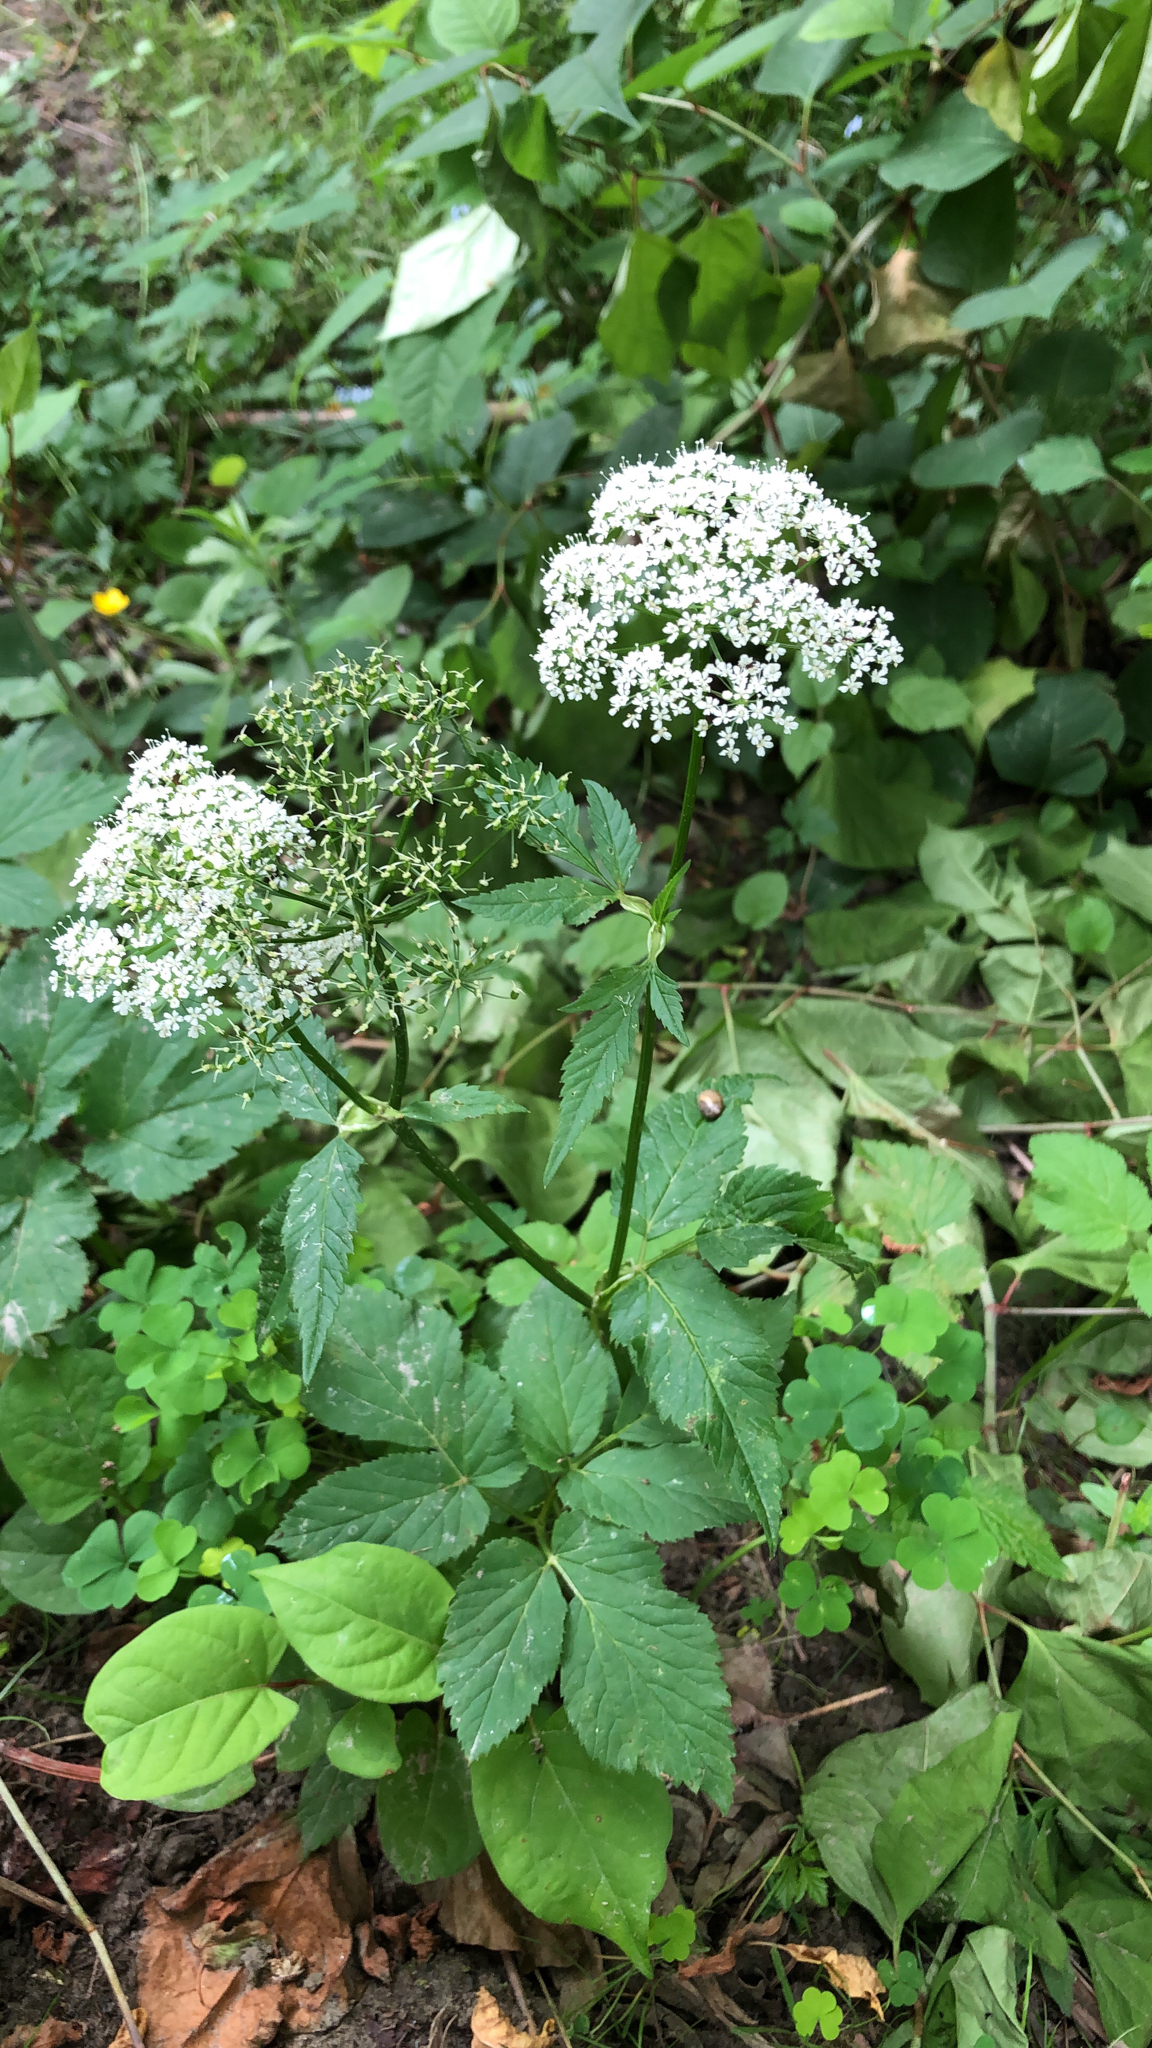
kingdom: Plantae
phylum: Tracheophyta
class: Magnoliopsida
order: Apiales
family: Apiaceae
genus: Aegopodium
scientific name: Aegopodium podagraria
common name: Ground-elder
